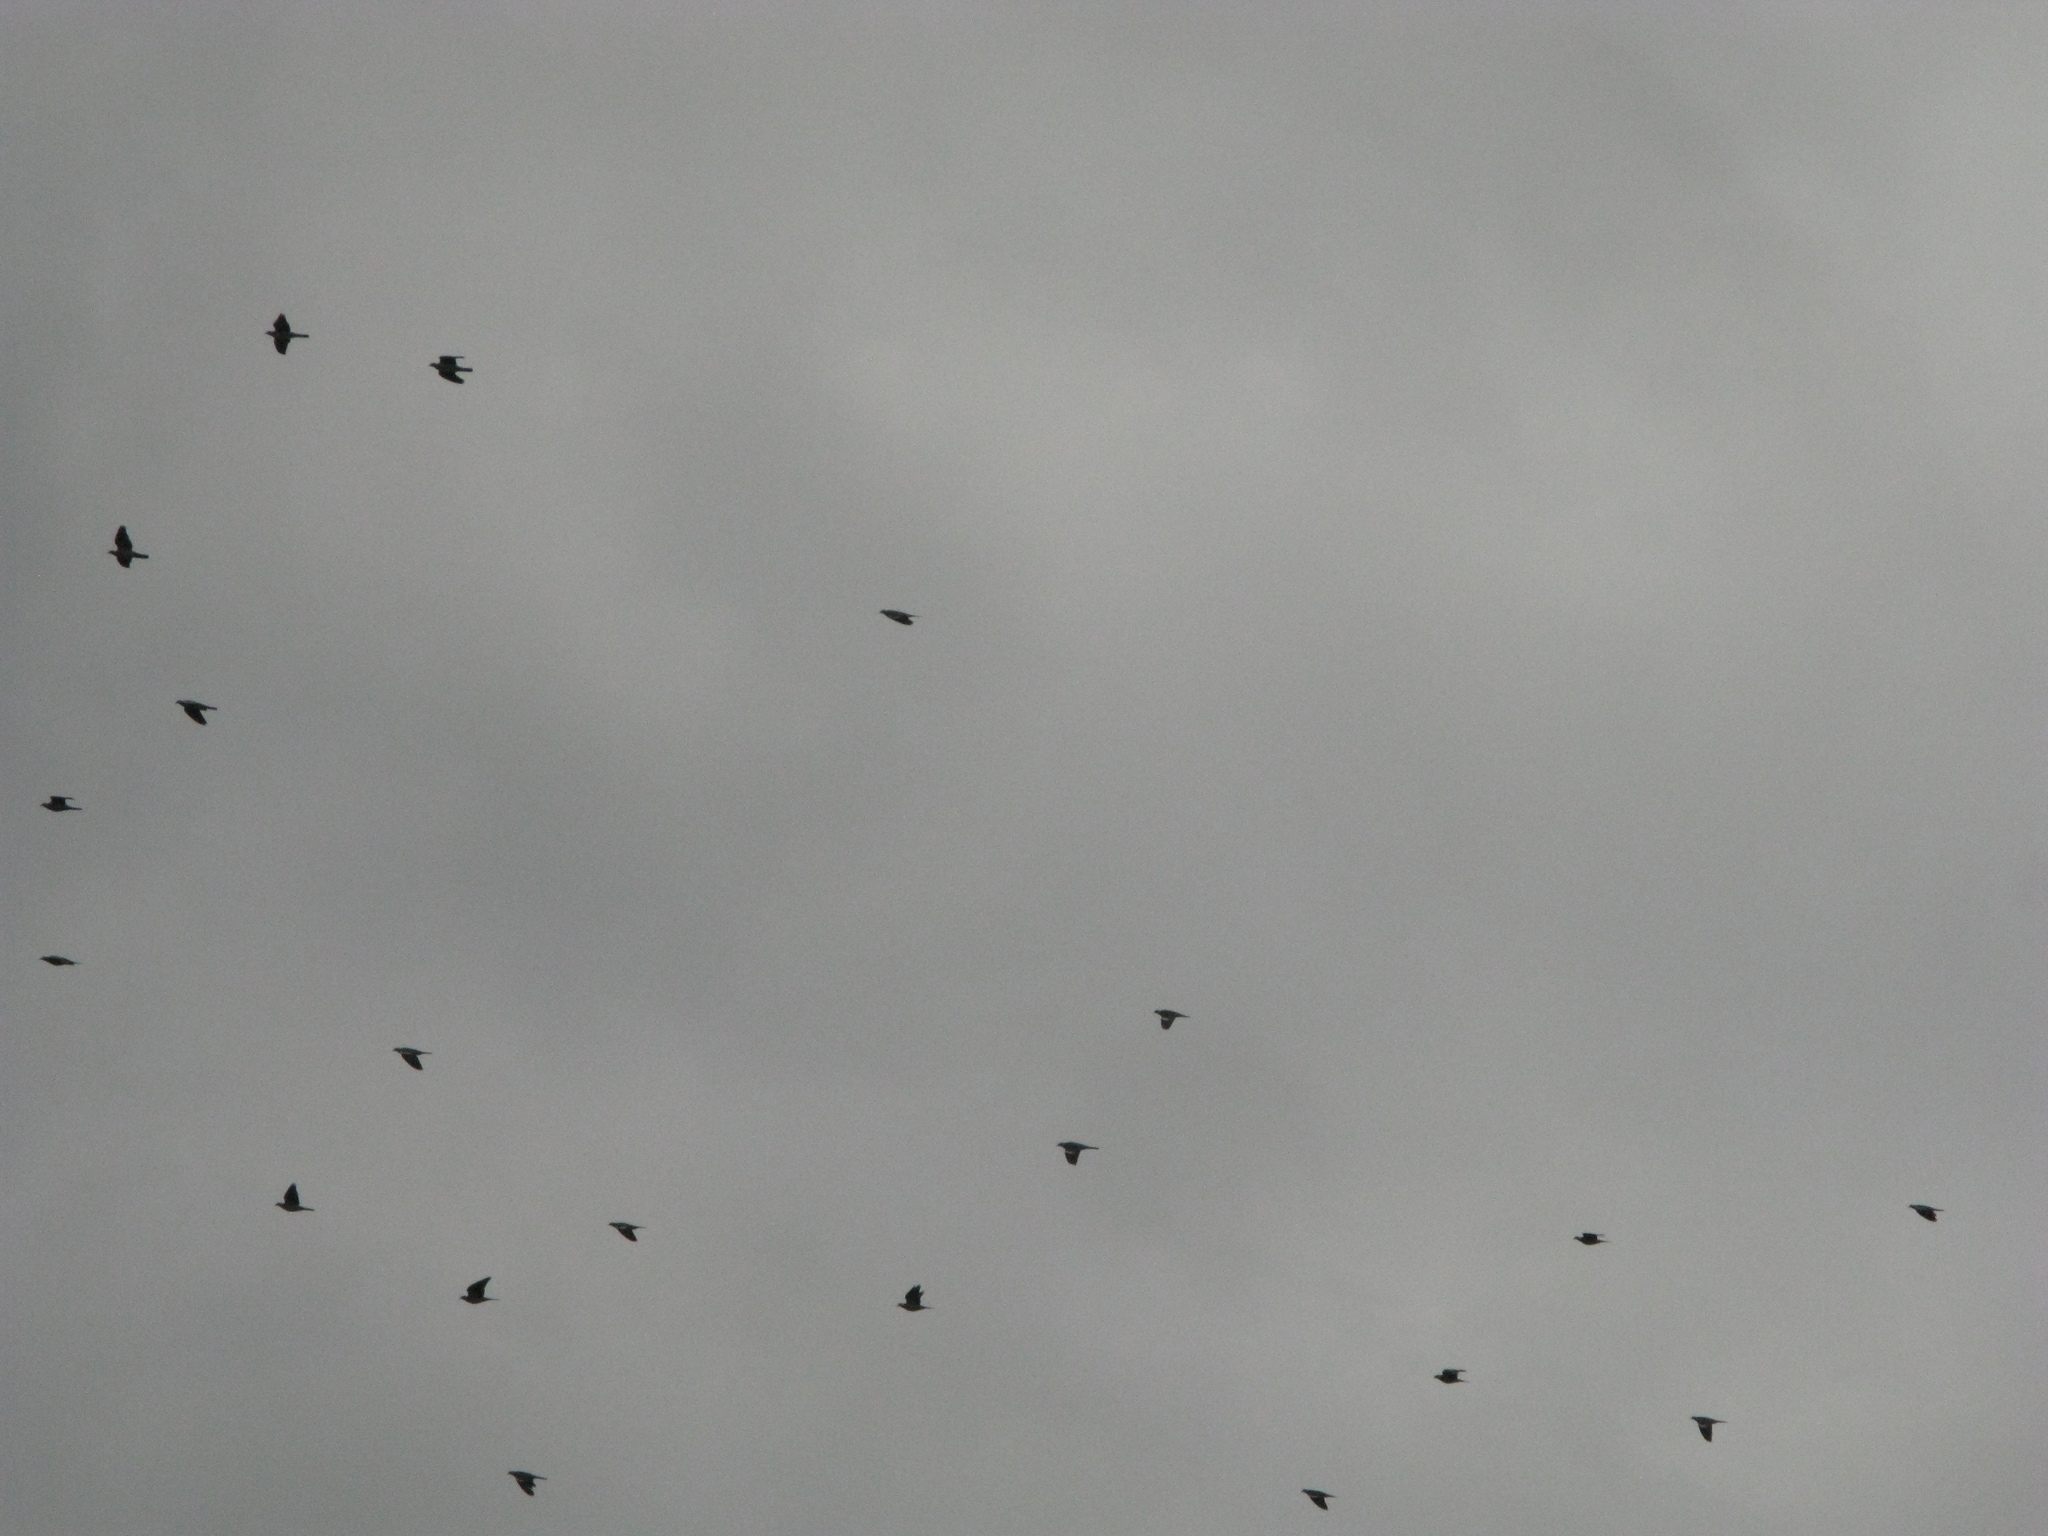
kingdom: Animalia
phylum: Chordata
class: Aves
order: Columbiformes
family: Columbidae
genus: Columba
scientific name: Columba palumbus
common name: Common wood pigeon
